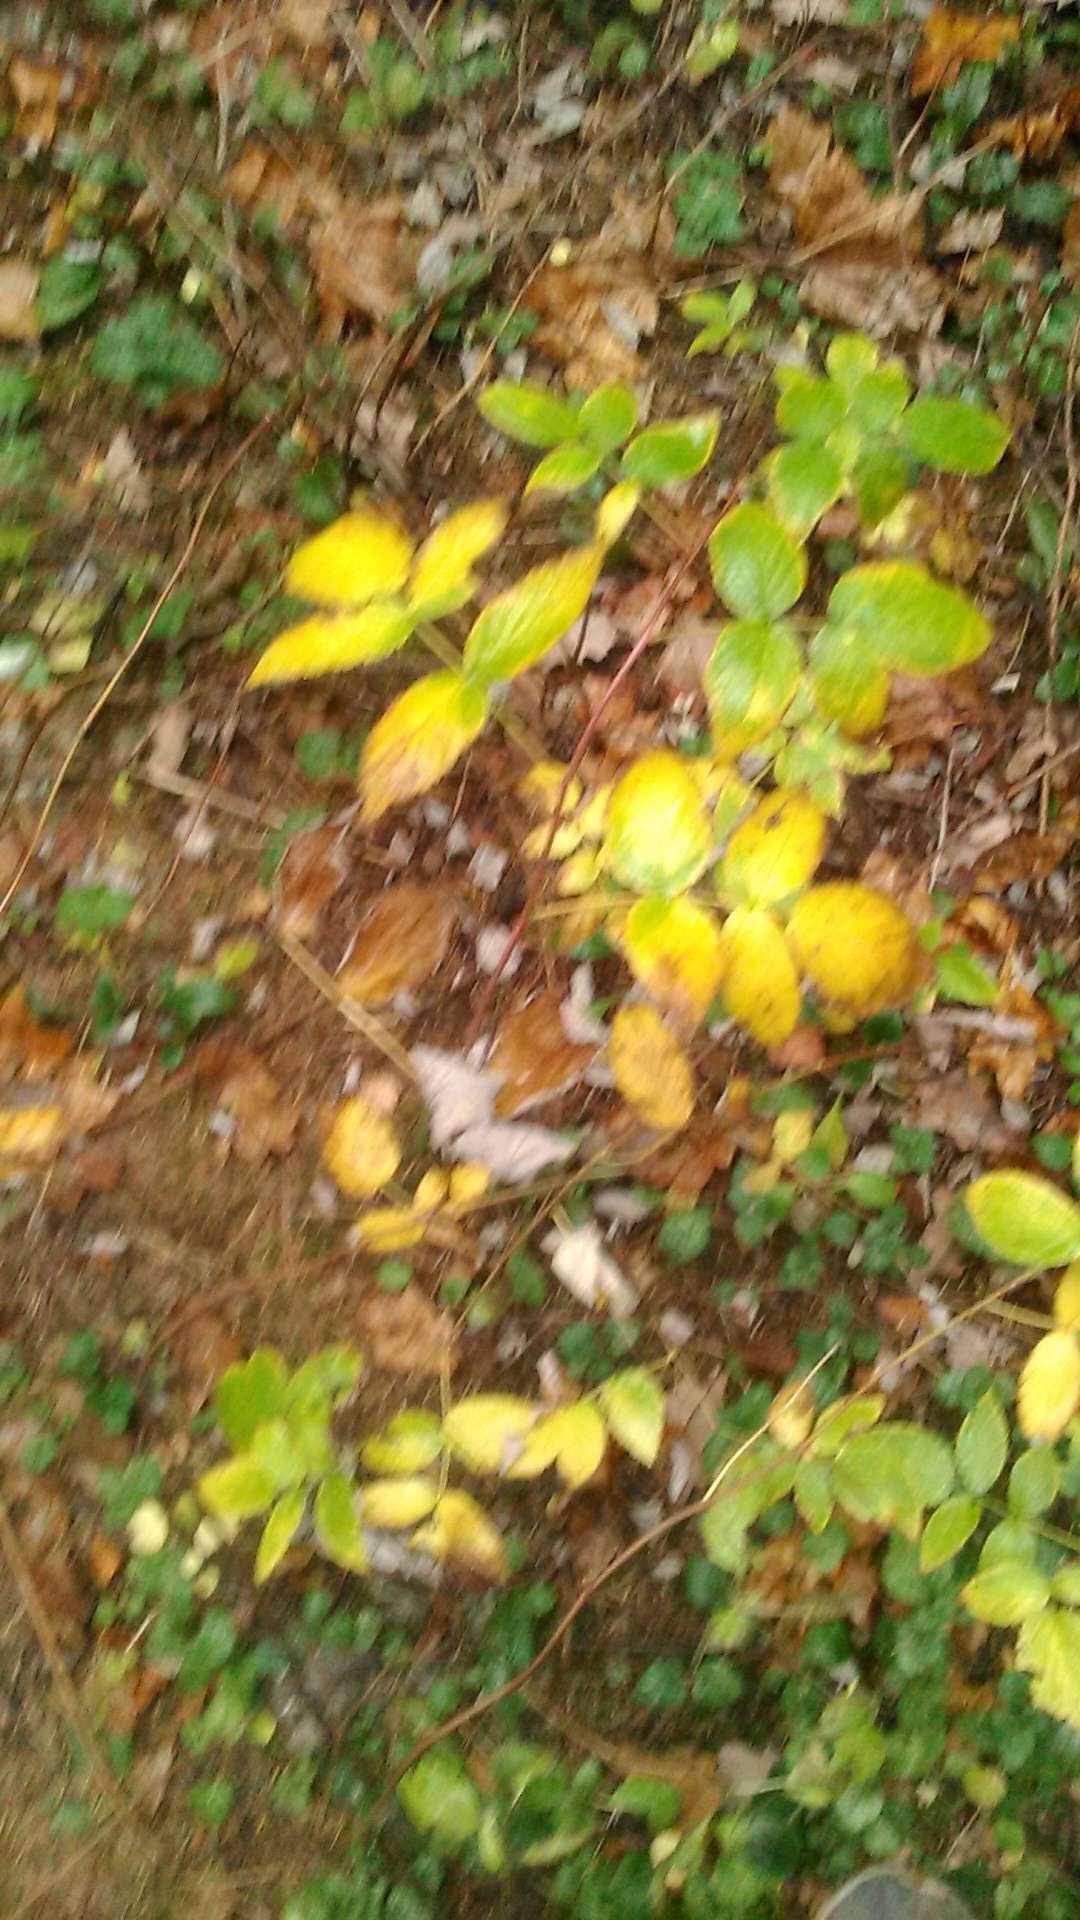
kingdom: Plantae
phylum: Tracheophyta
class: Magnoliopsida
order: Rosales
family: Rosaceae
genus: Rubus
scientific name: Rubus idaeus
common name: Raspberry
